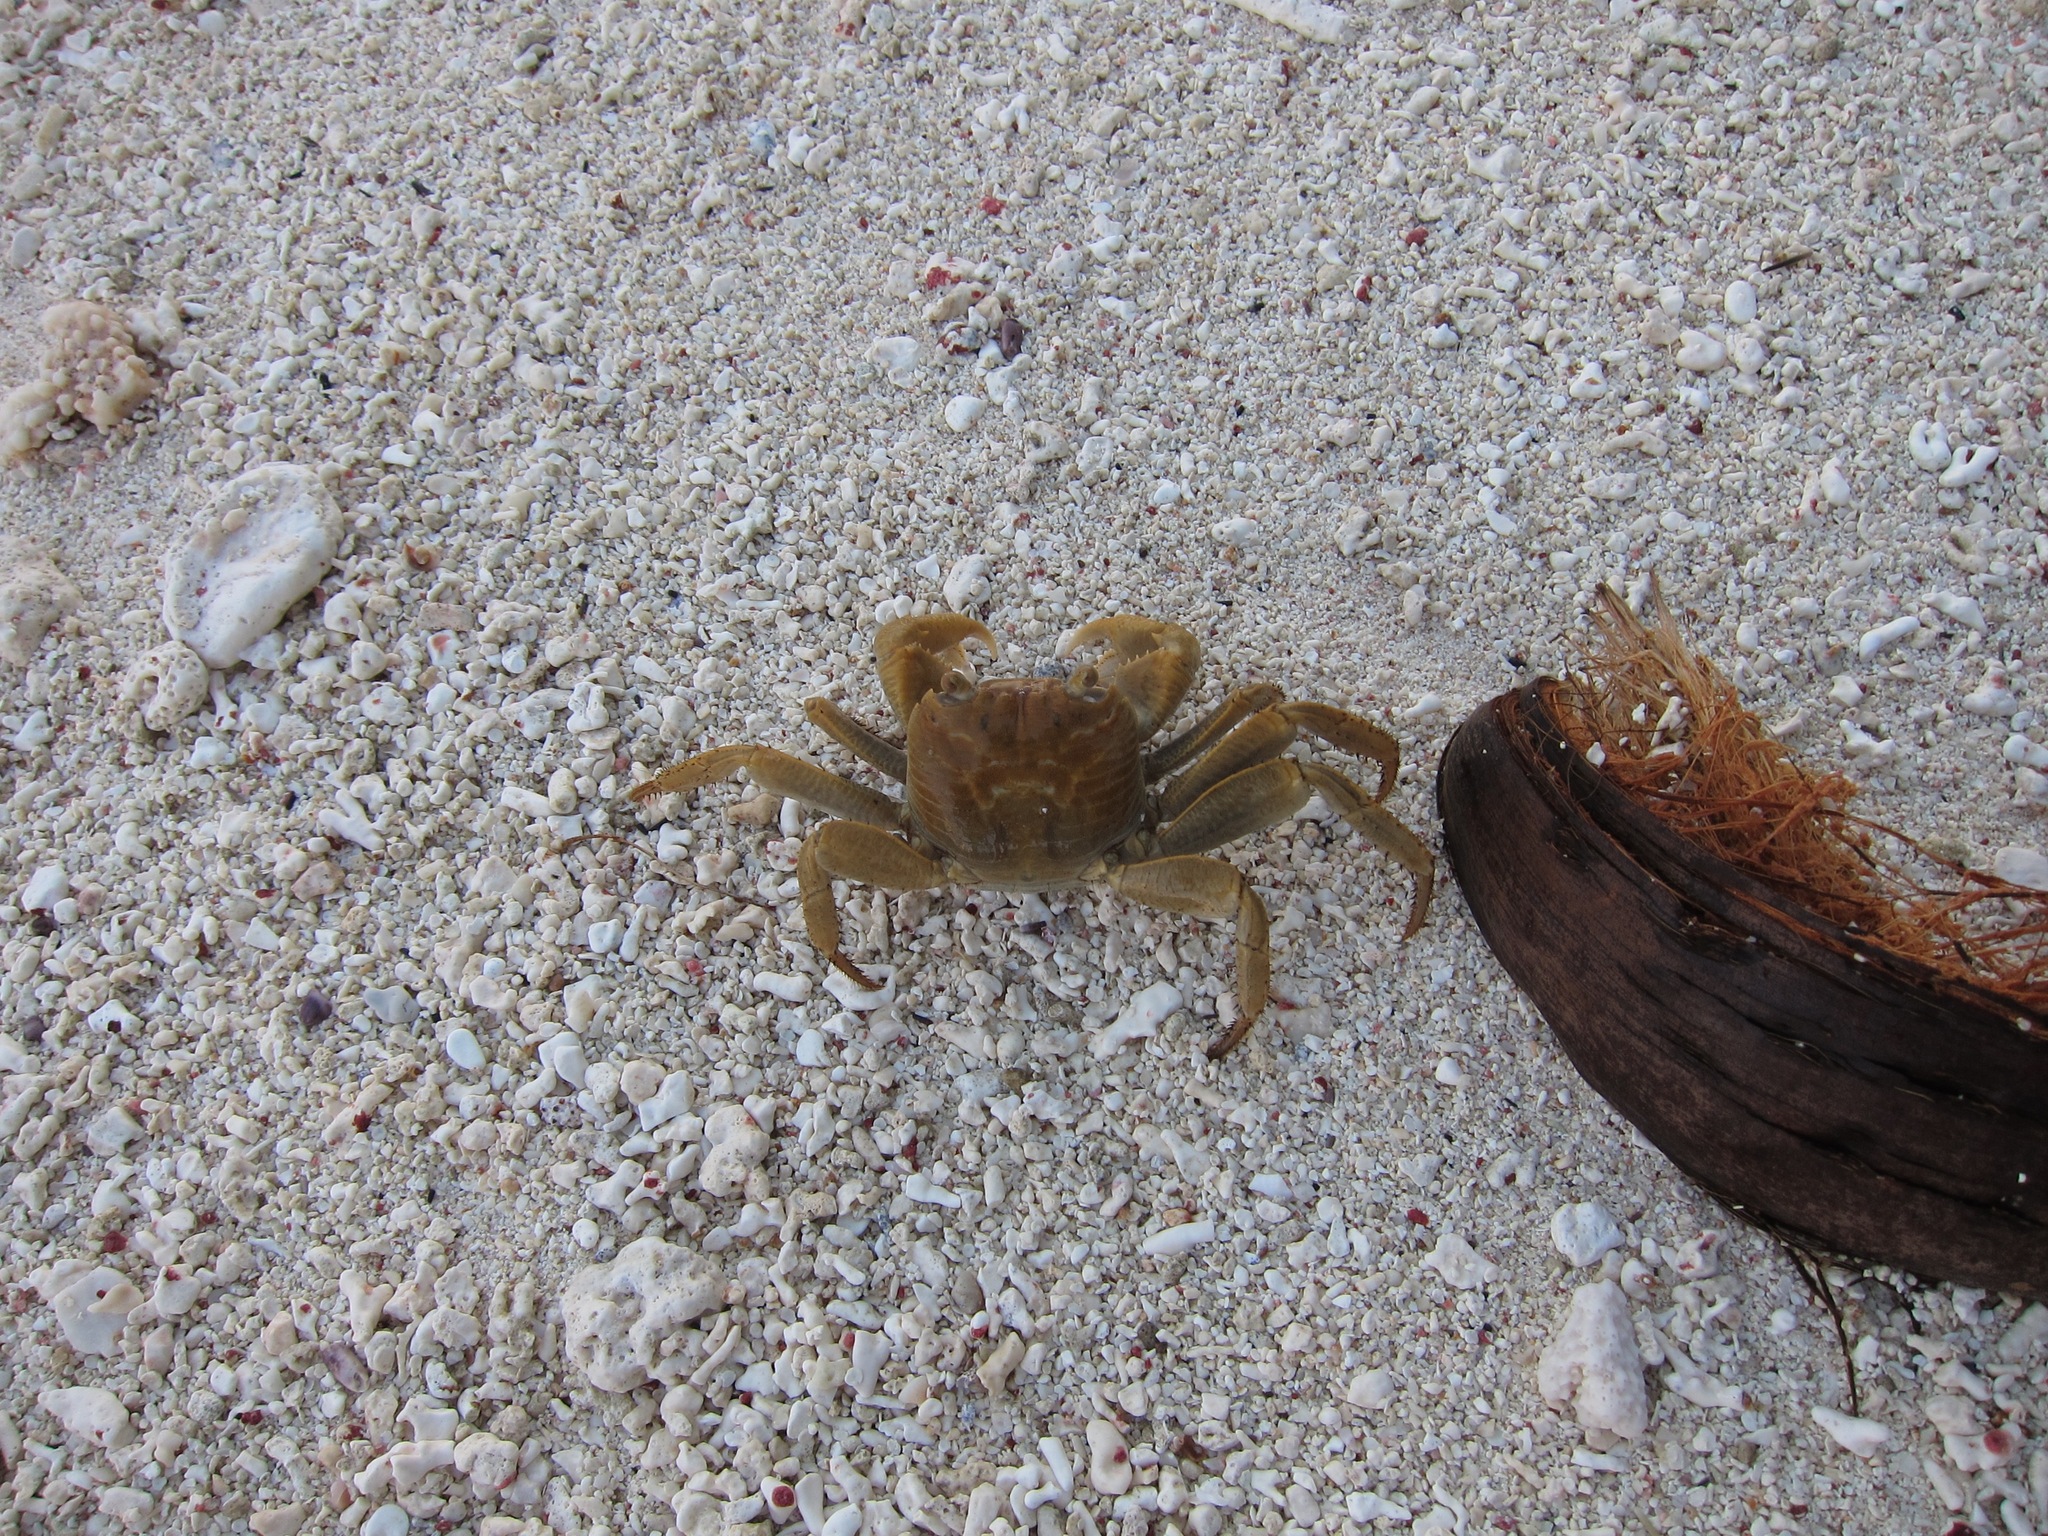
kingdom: Animalia
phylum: Arthropoda
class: Malacostraca
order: Decapoda
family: Grapsidae
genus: Geograpsus
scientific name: Geograpsus crinipes
